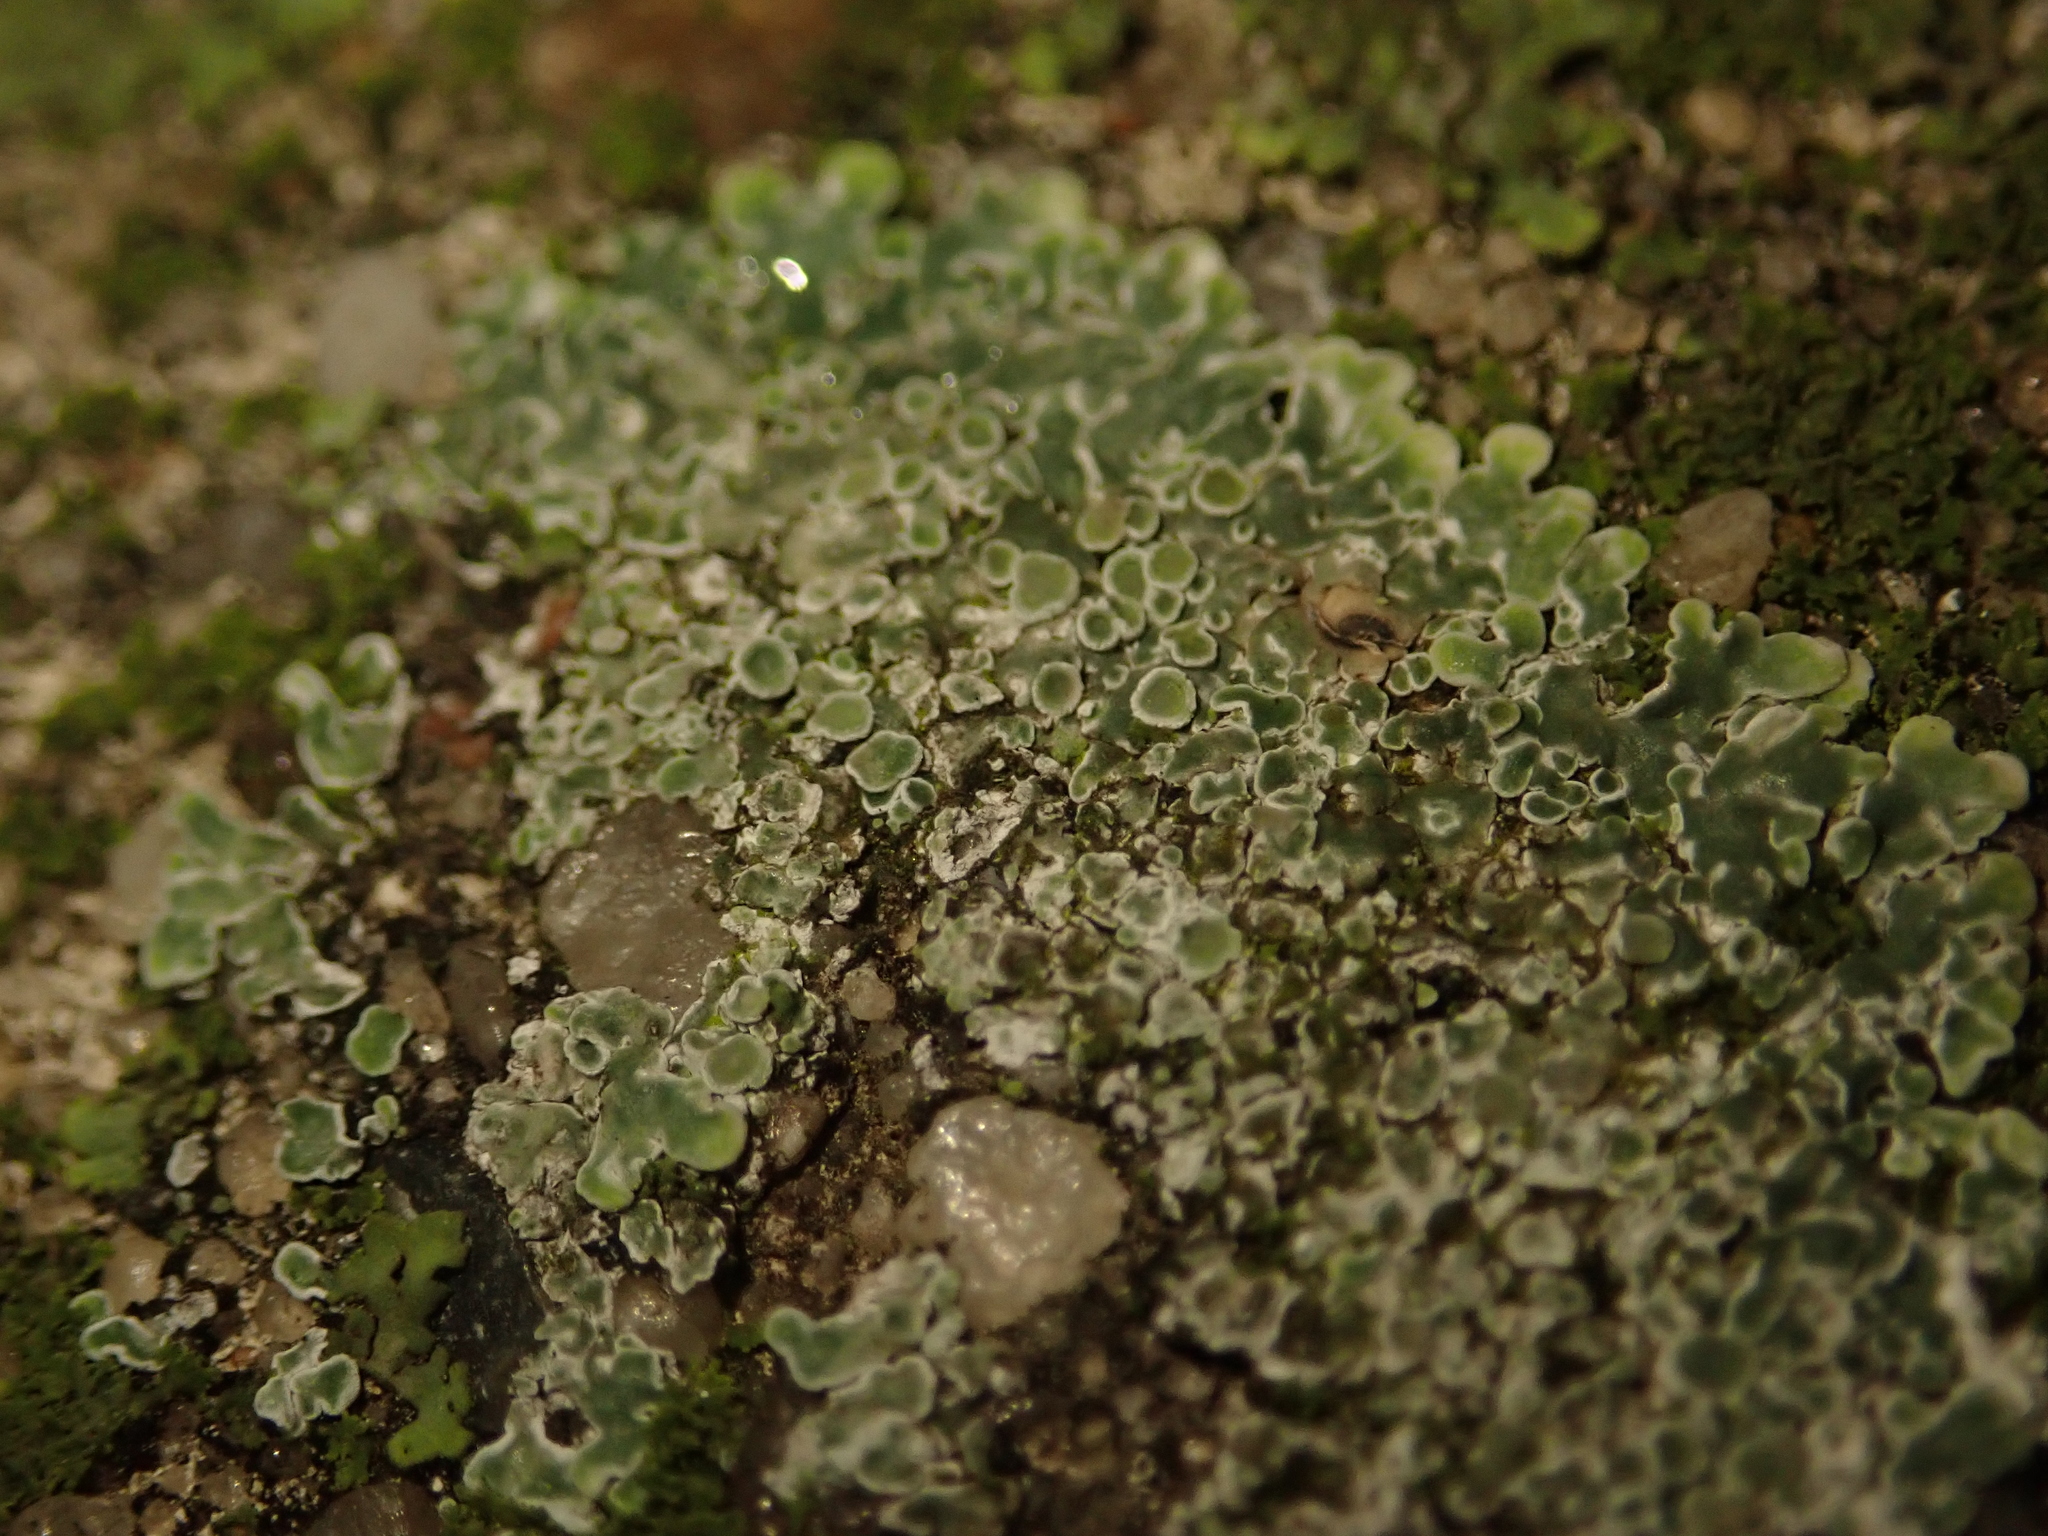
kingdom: Fungi
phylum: Ascomycota
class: Lecanoromycetes
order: Lecanorales
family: Lecanoraceae
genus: Protoparmeliopsis
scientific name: Protoparmeliopsis muralis
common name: Stonewall rim lichen
